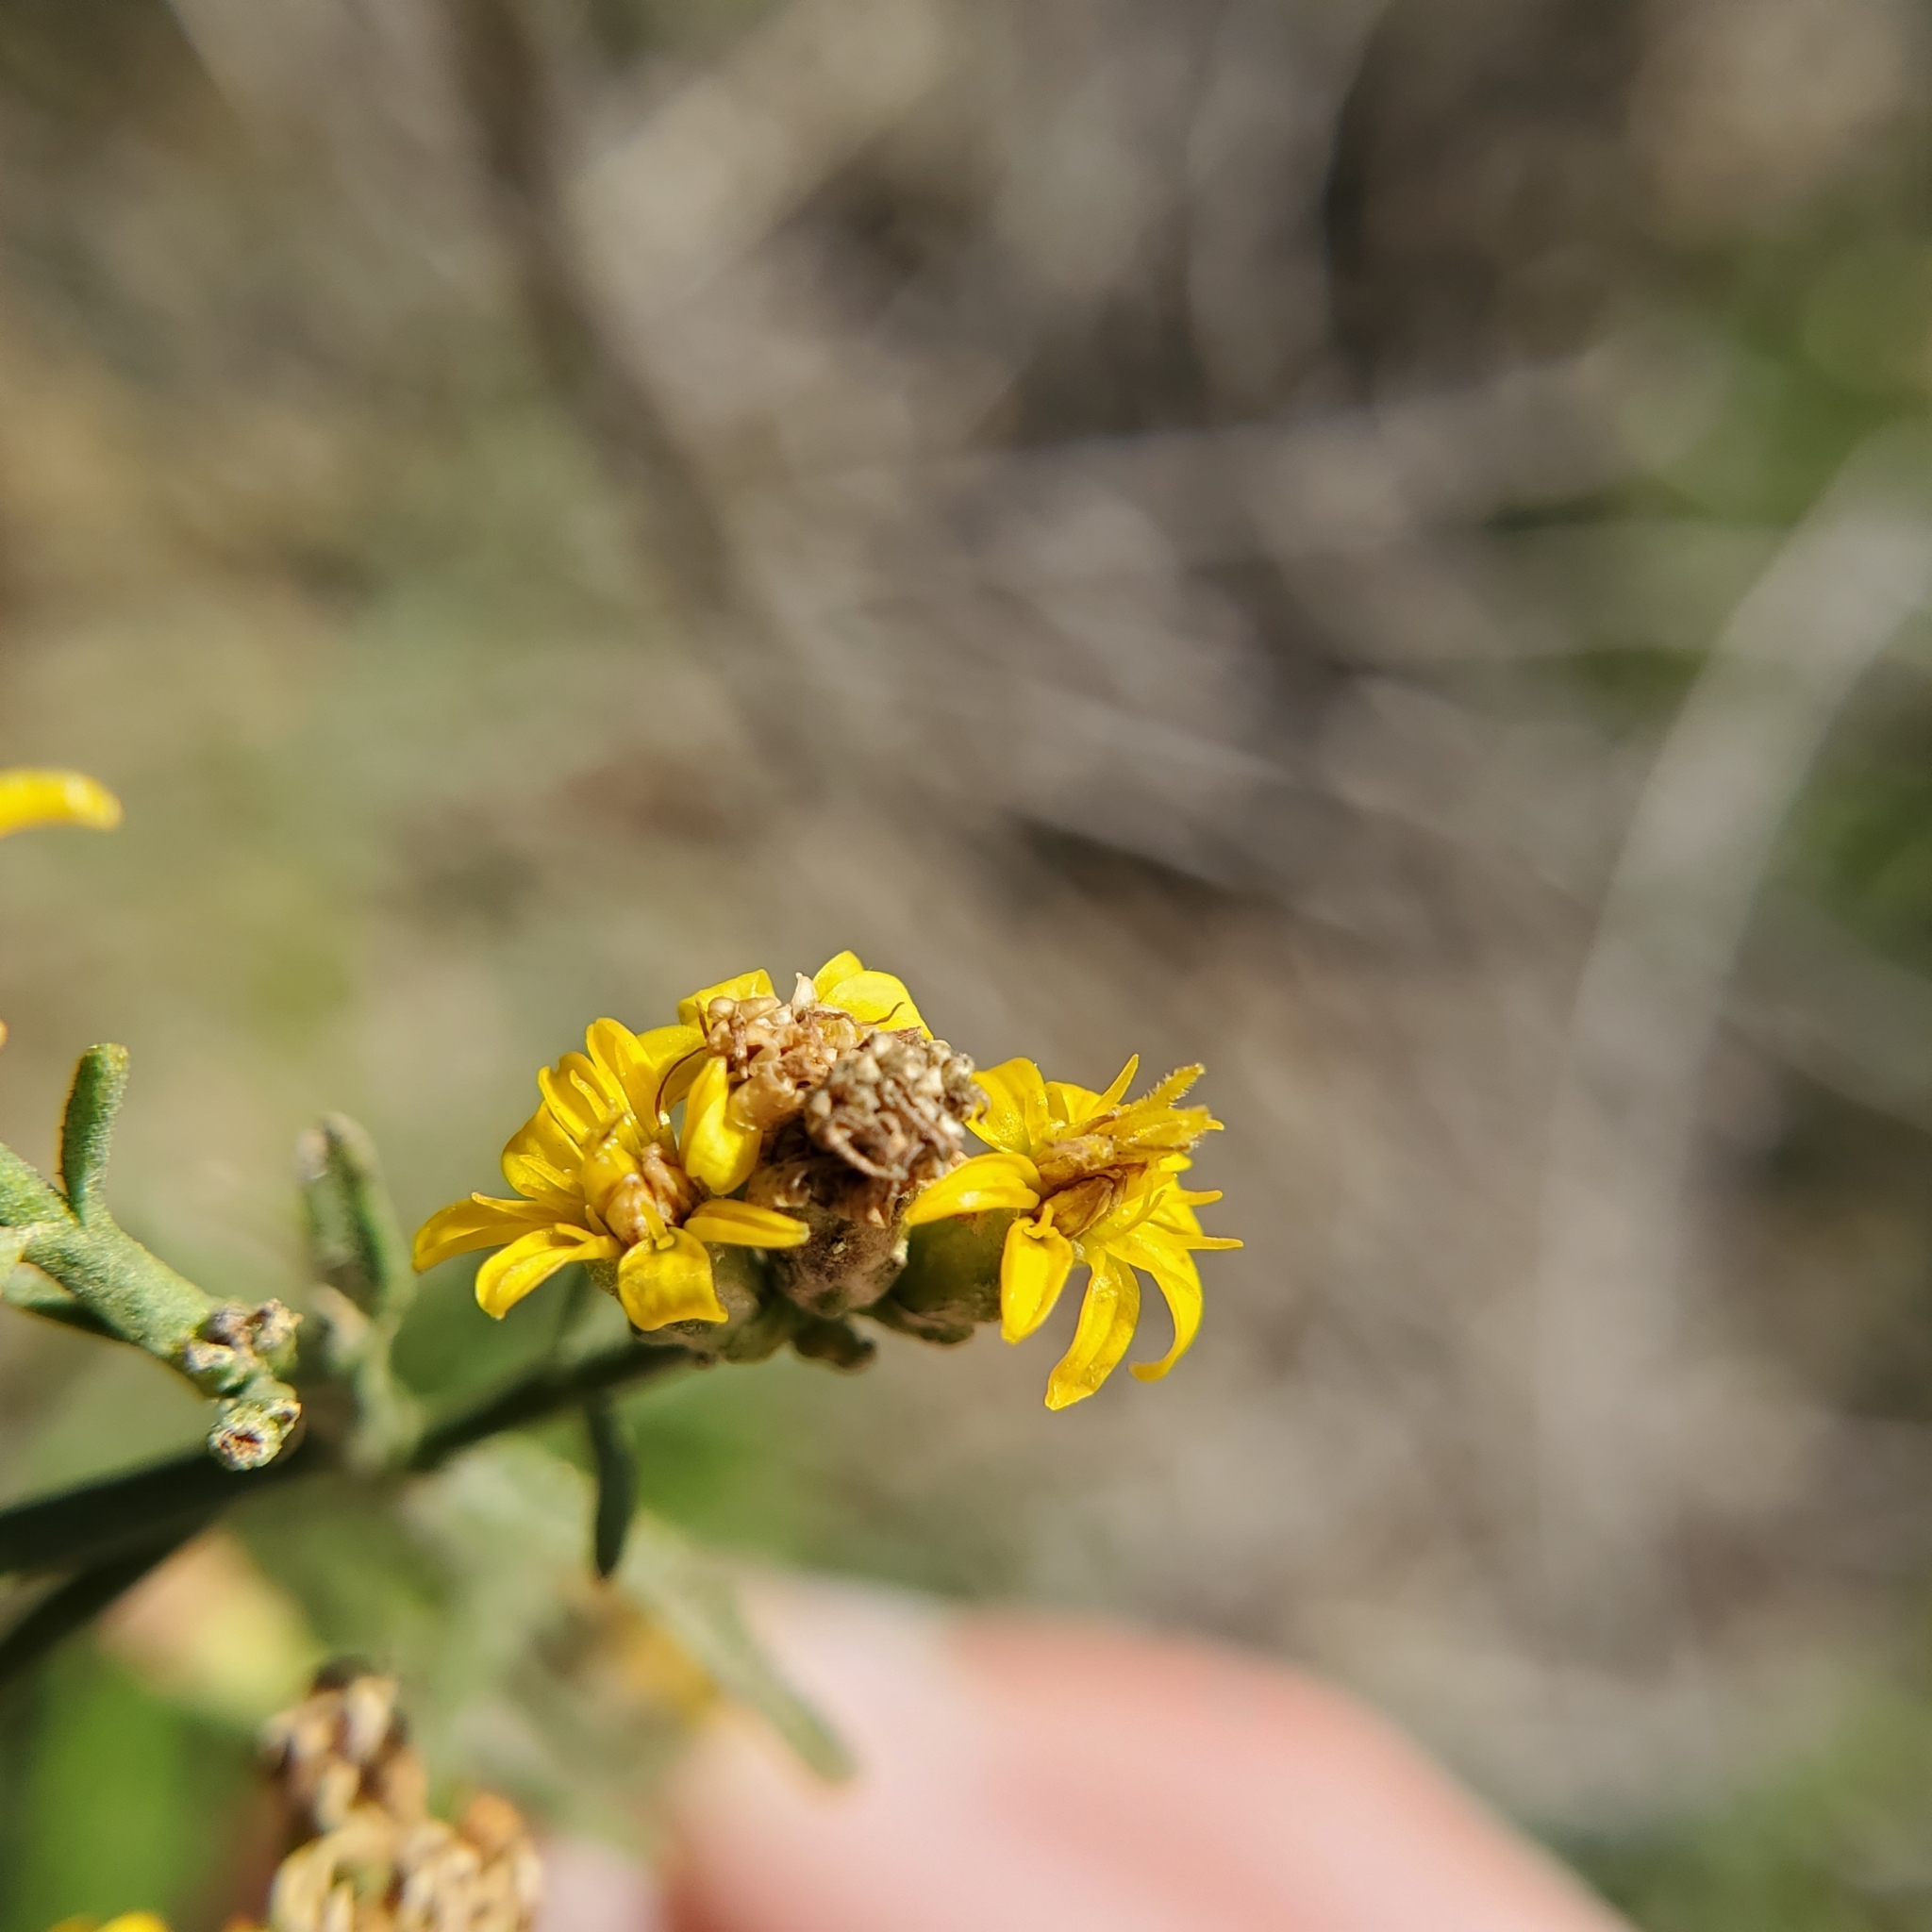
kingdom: Plantae
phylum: Tracheophyta
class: Magnoliopsida
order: Asterales
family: Asteraceae
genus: Gutierrezia
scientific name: Gutierrezia californica
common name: California matchweed
